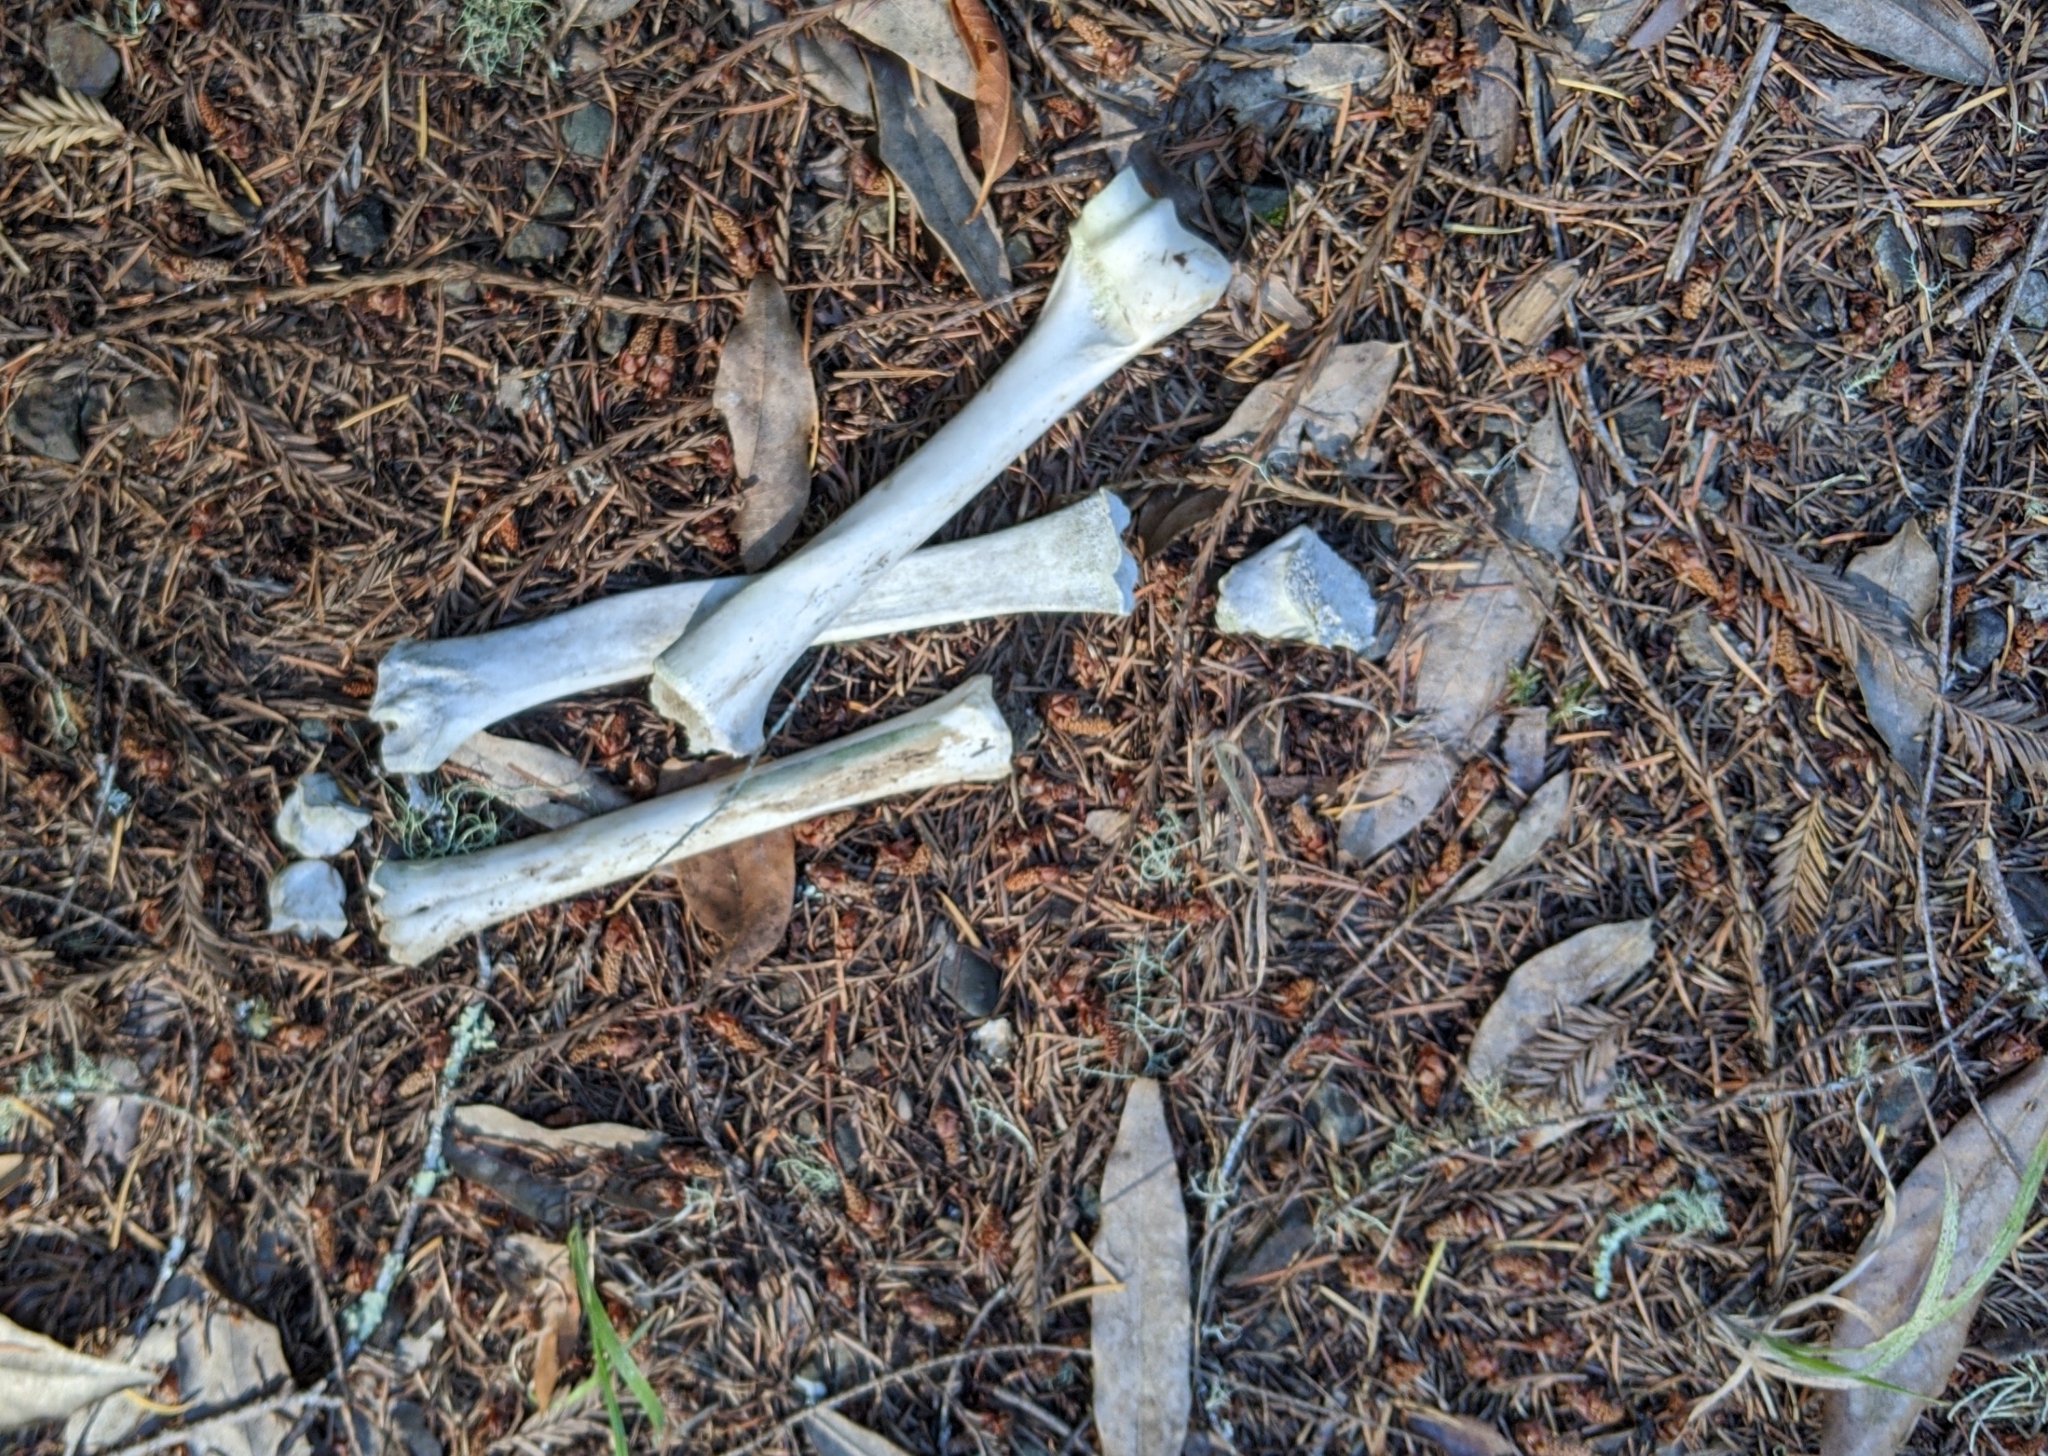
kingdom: Animalia
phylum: Chordata
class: Mammalia
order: Artiodactyla
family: Cervidae
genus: Odocoileus
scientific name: Odocoileus hemionus
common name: Mule deer
